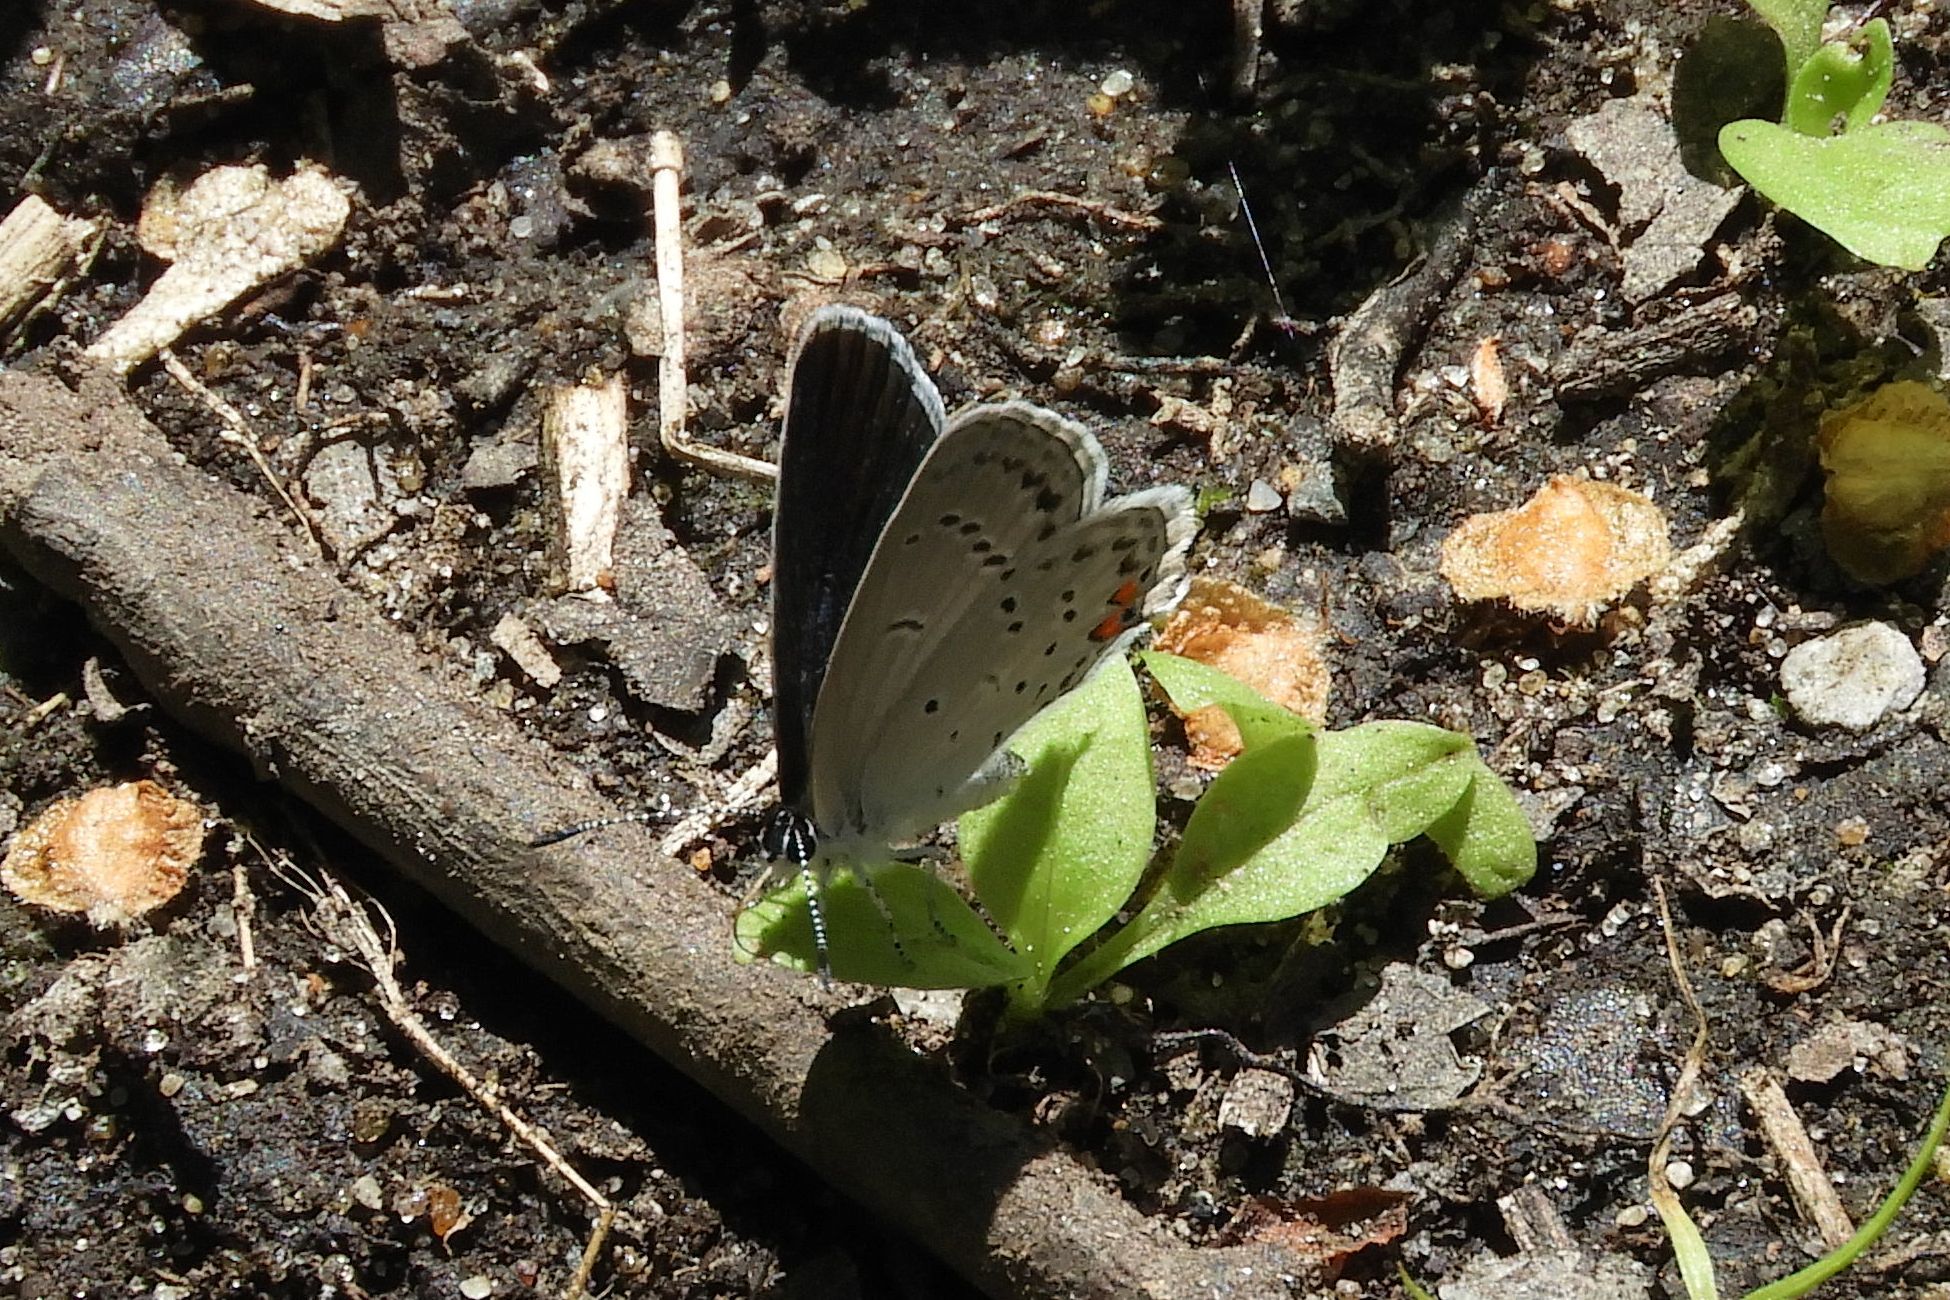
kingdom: Animalia
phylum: Arthropoda
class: Insecta
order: Lepidoptera
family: Lycaenidae
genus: Elkalyce
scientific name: Elkalyce comyntas
